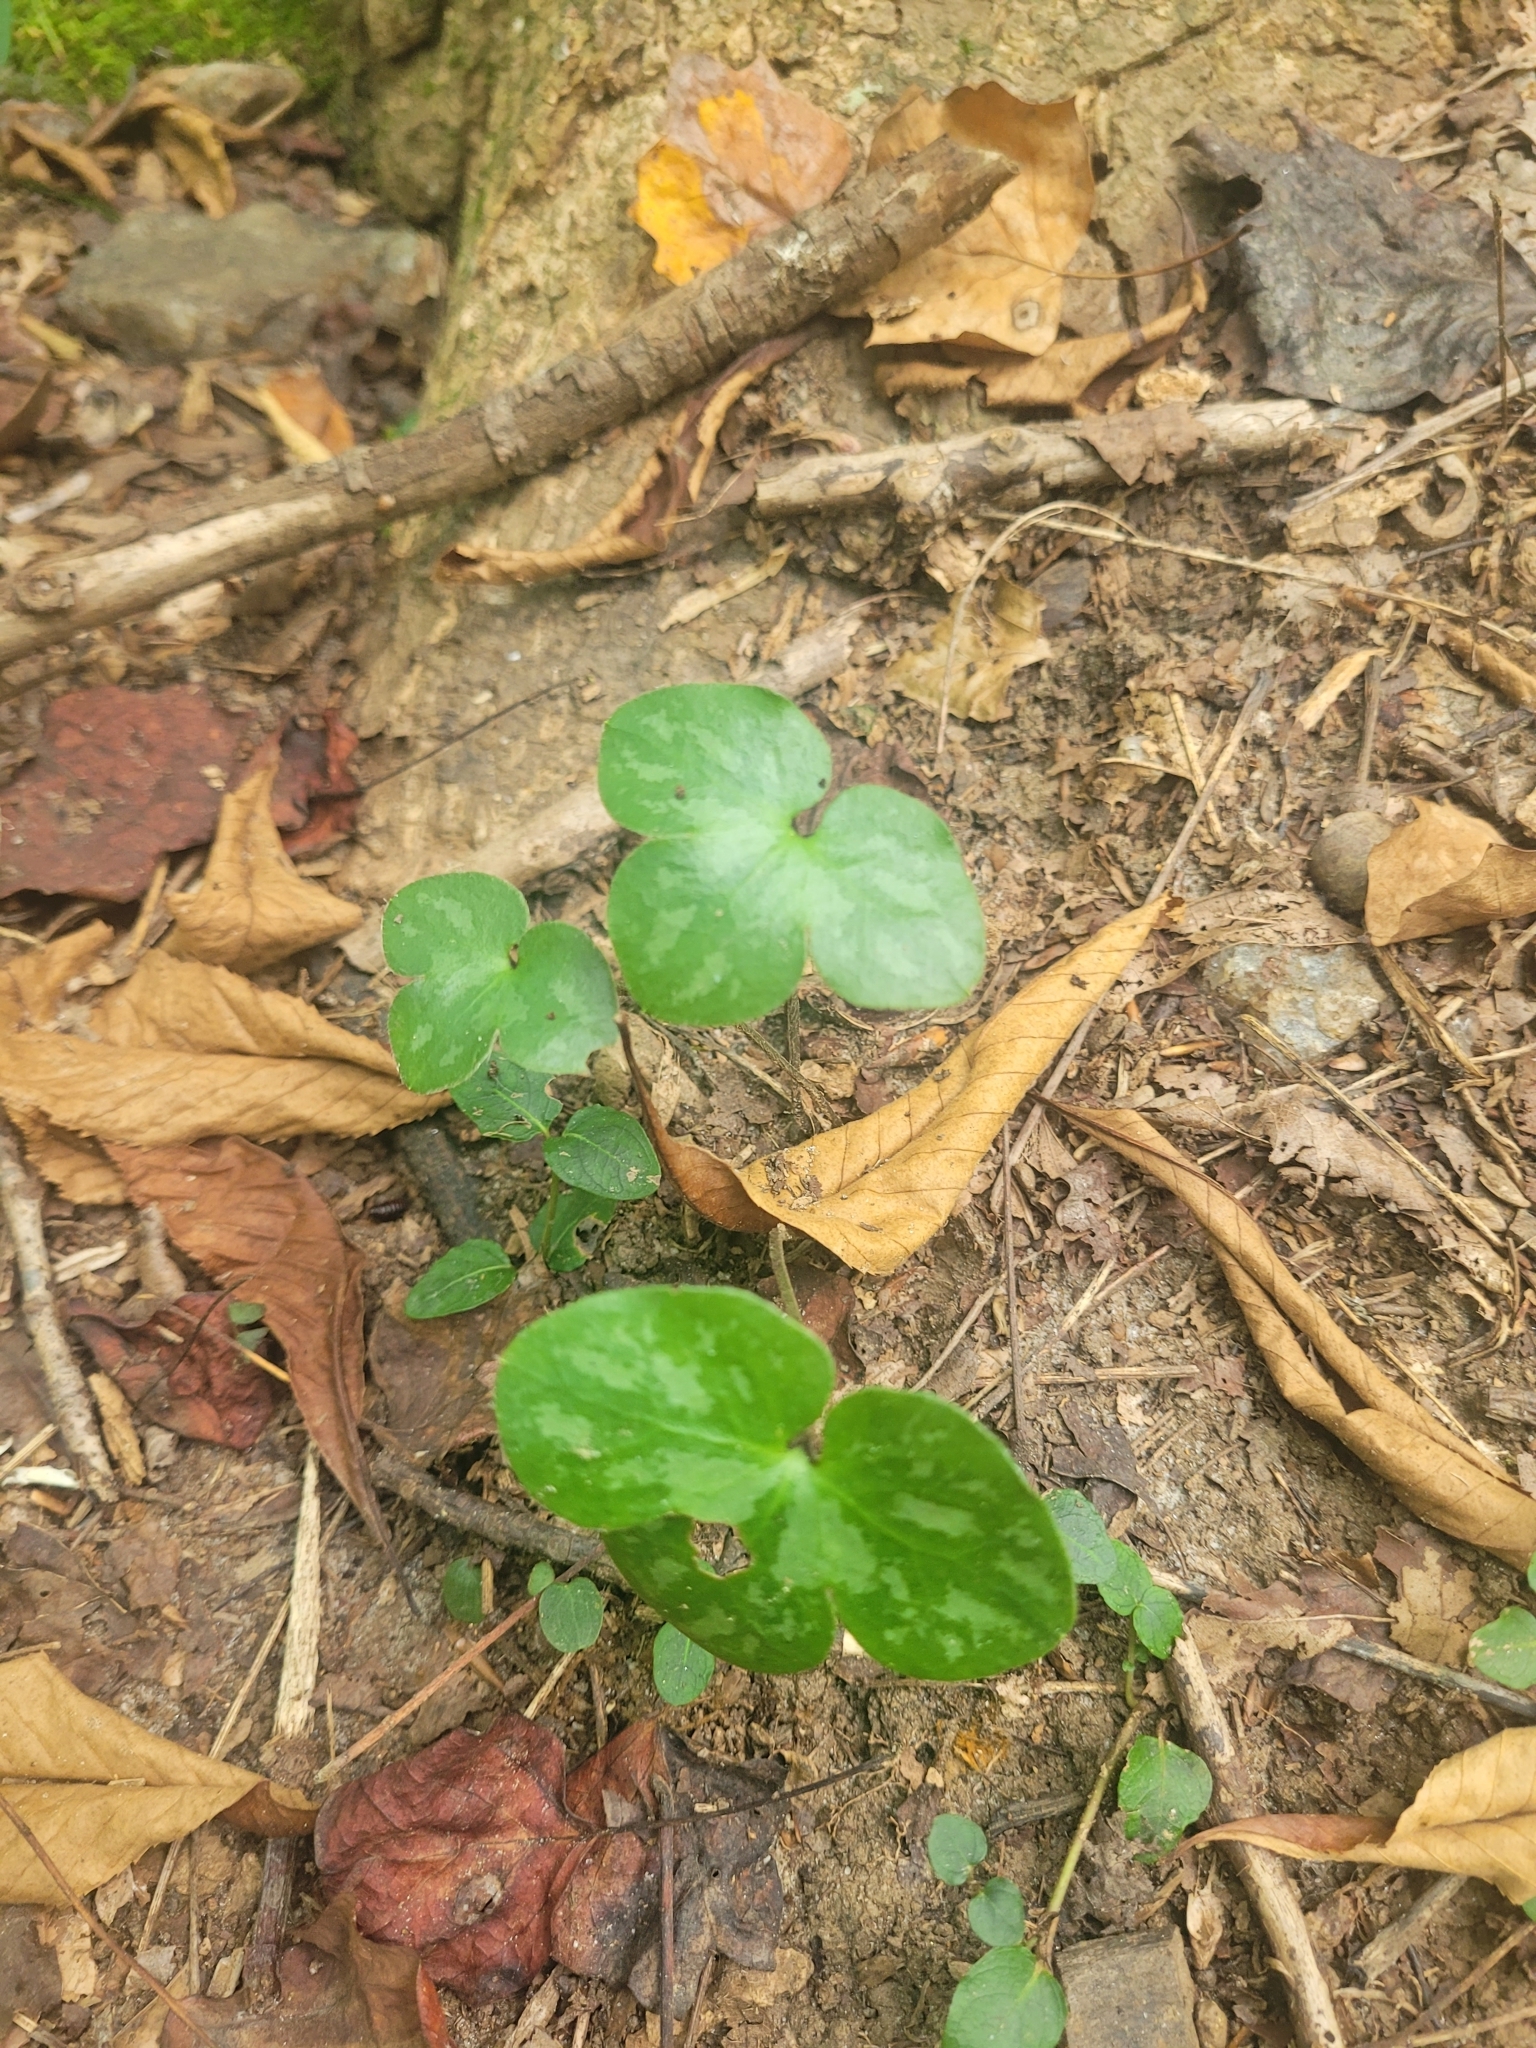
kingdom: Plantae
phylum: Tracheophyta
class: Magnoliopsida
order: Ranunculales
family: Ranunculaceae
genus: Hepatica
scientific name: Hepatica americana
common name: American hepatica
